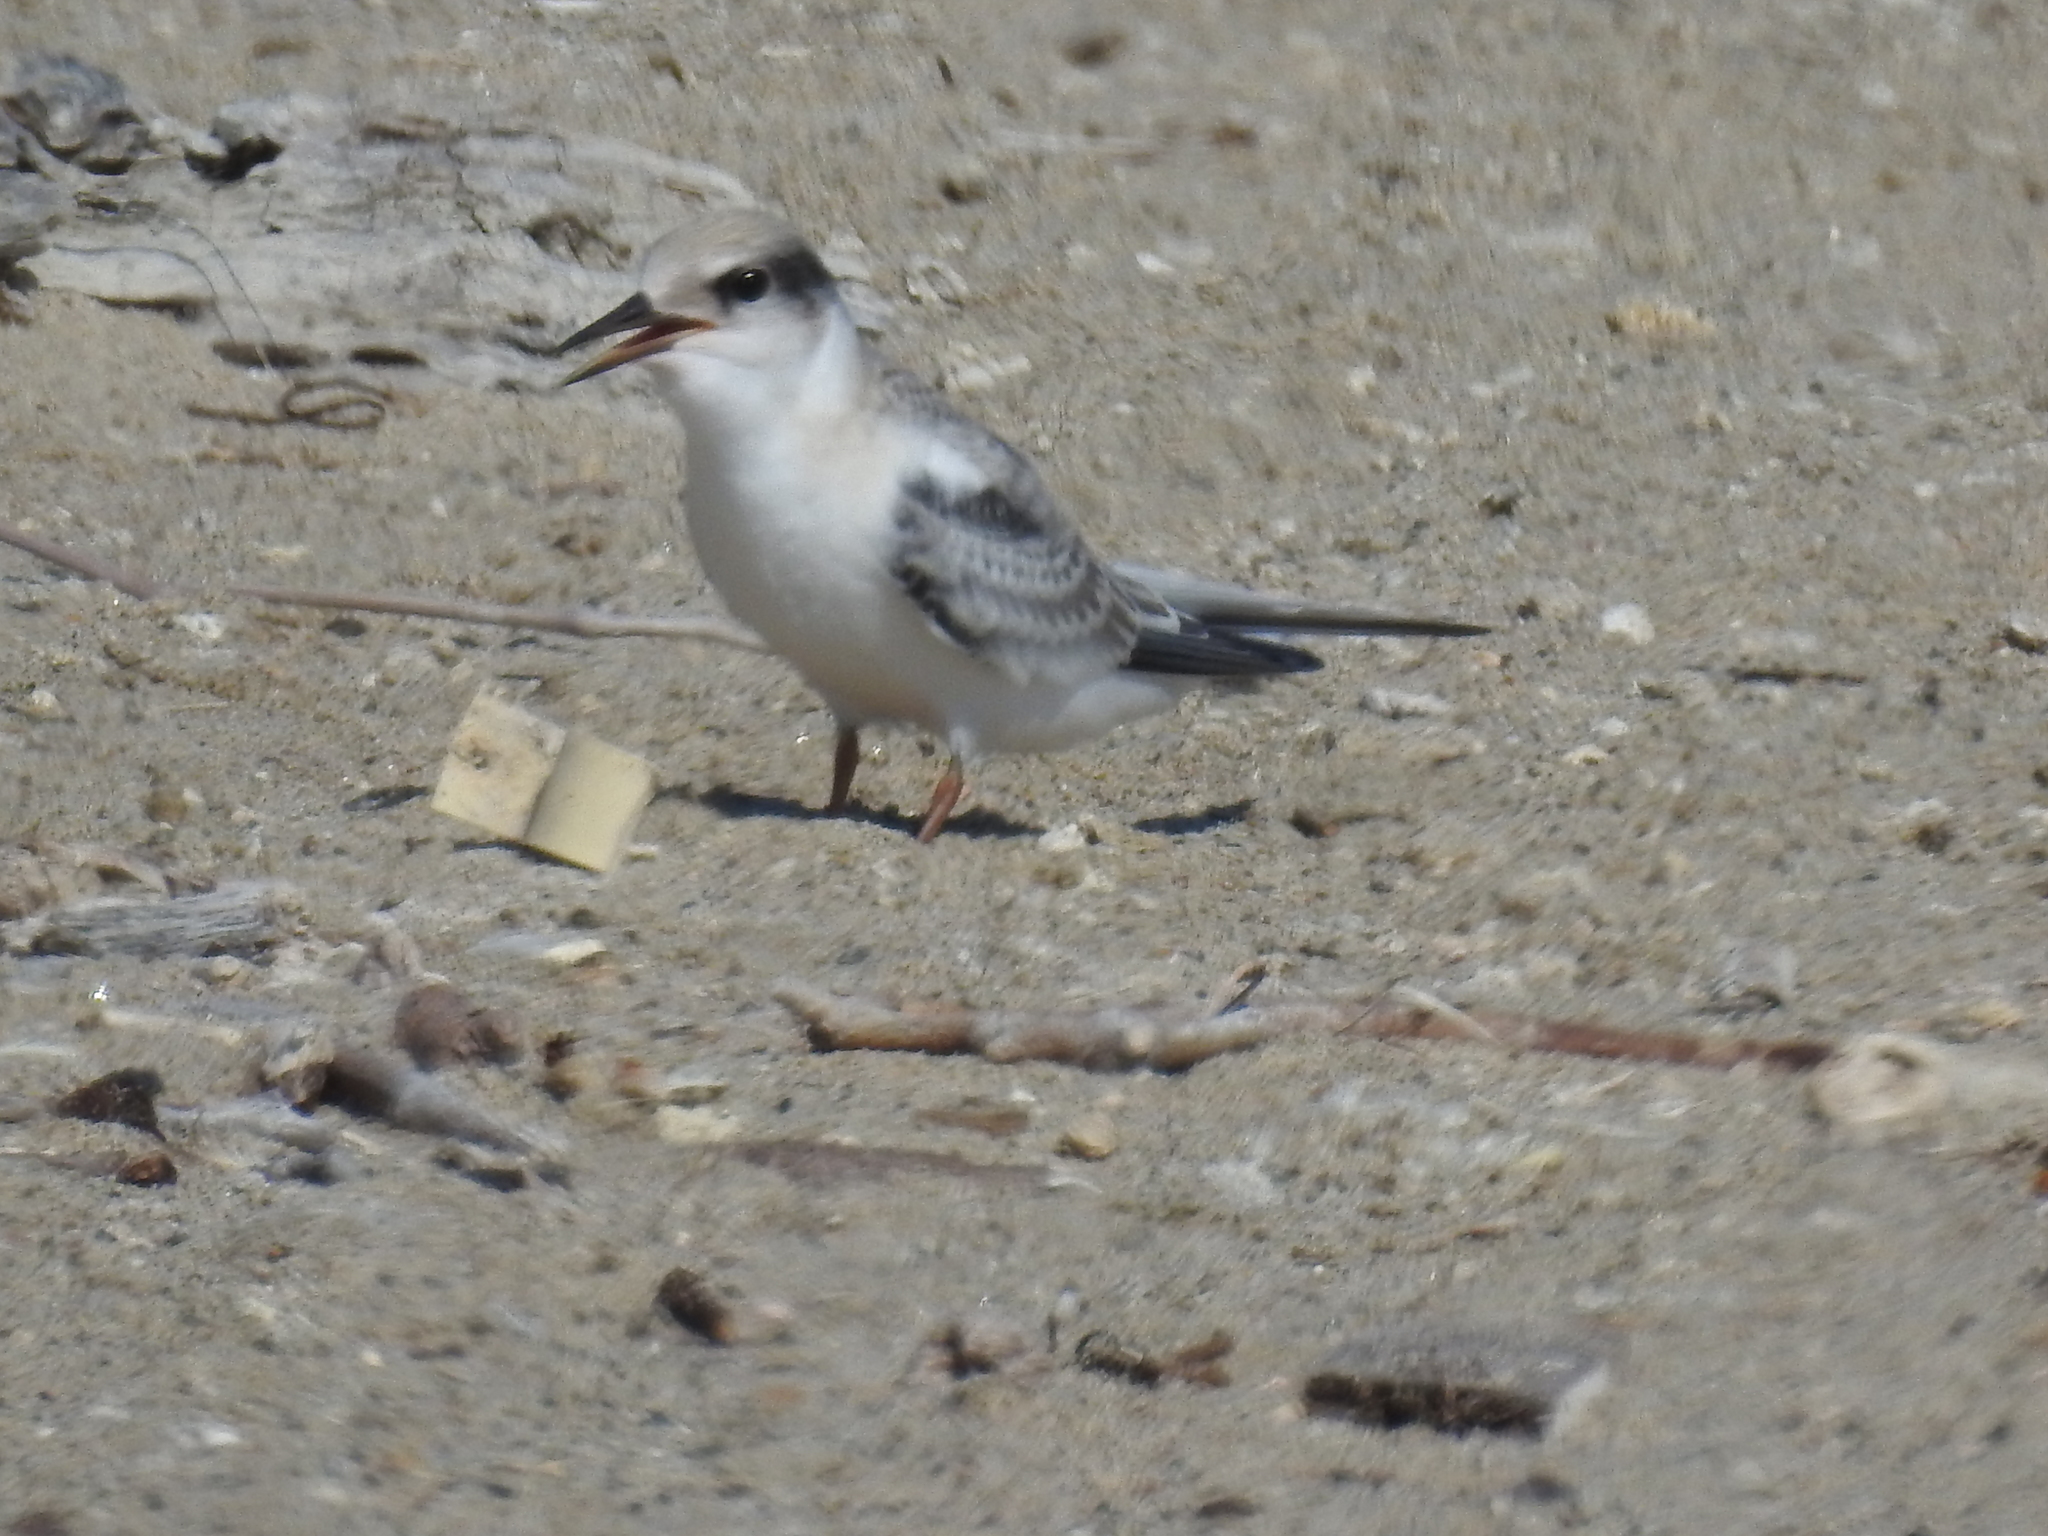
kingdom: Animalia
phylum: Chordata
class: Aves
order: Charadriiformes
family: Laridae
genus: Sternula
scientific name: Sternula antillarum
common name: Least tern
